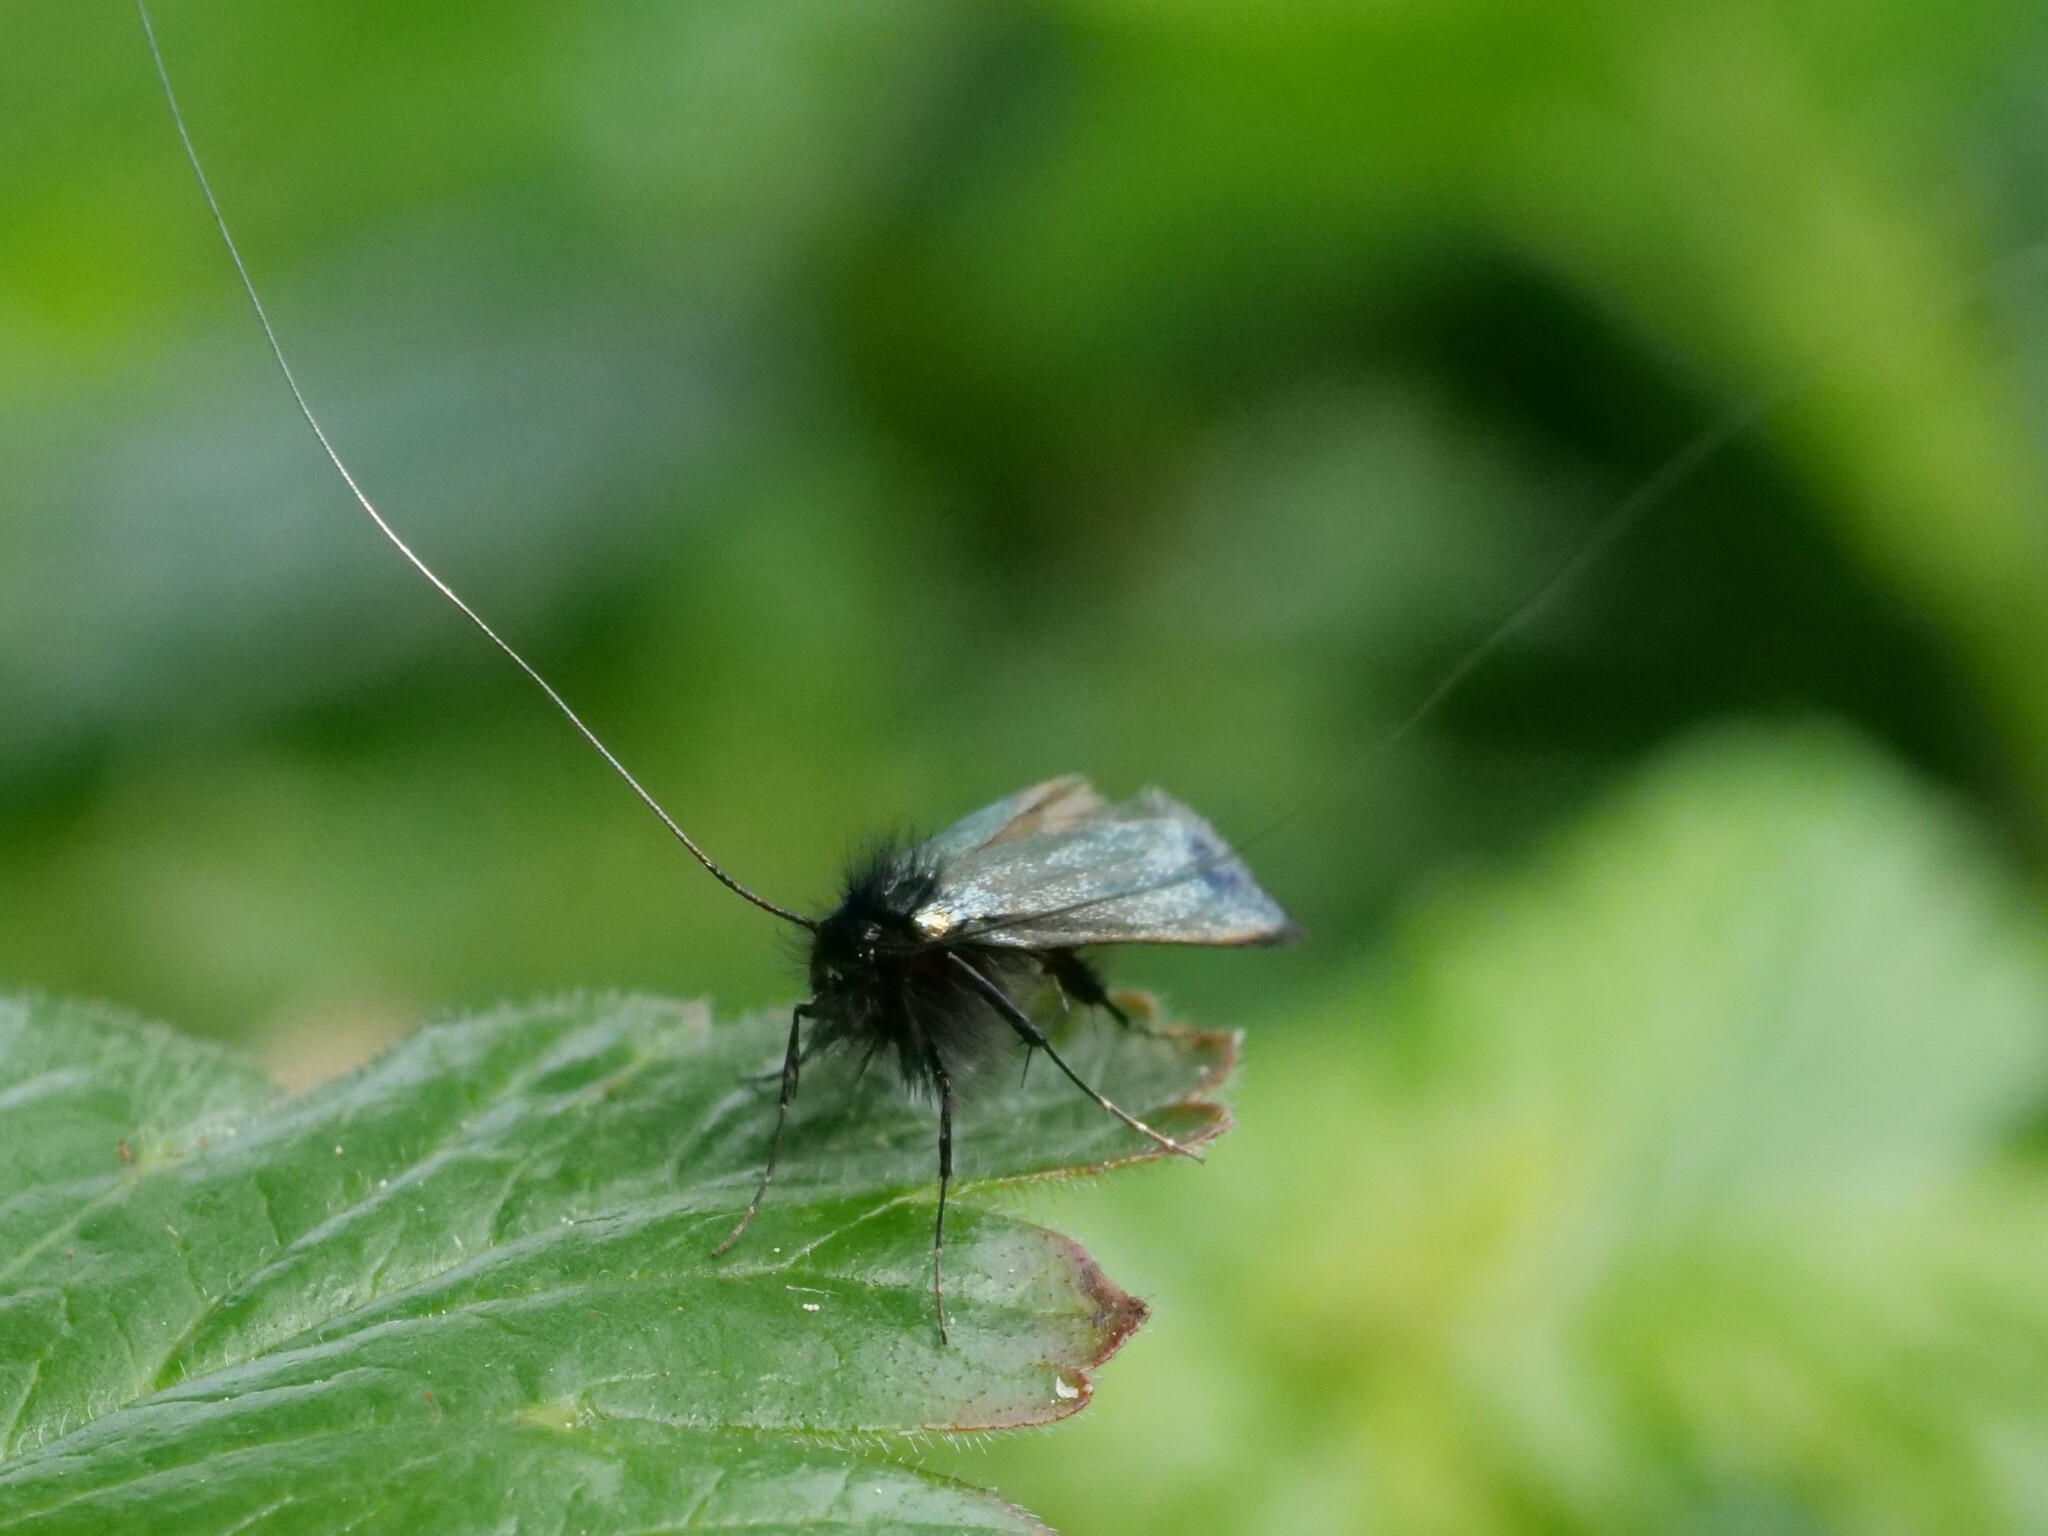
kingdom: Animalia
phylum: Arthropoda
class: Insecta
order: Lepidoptera
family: Adelidae
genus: Adela
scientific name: Adela viridella
